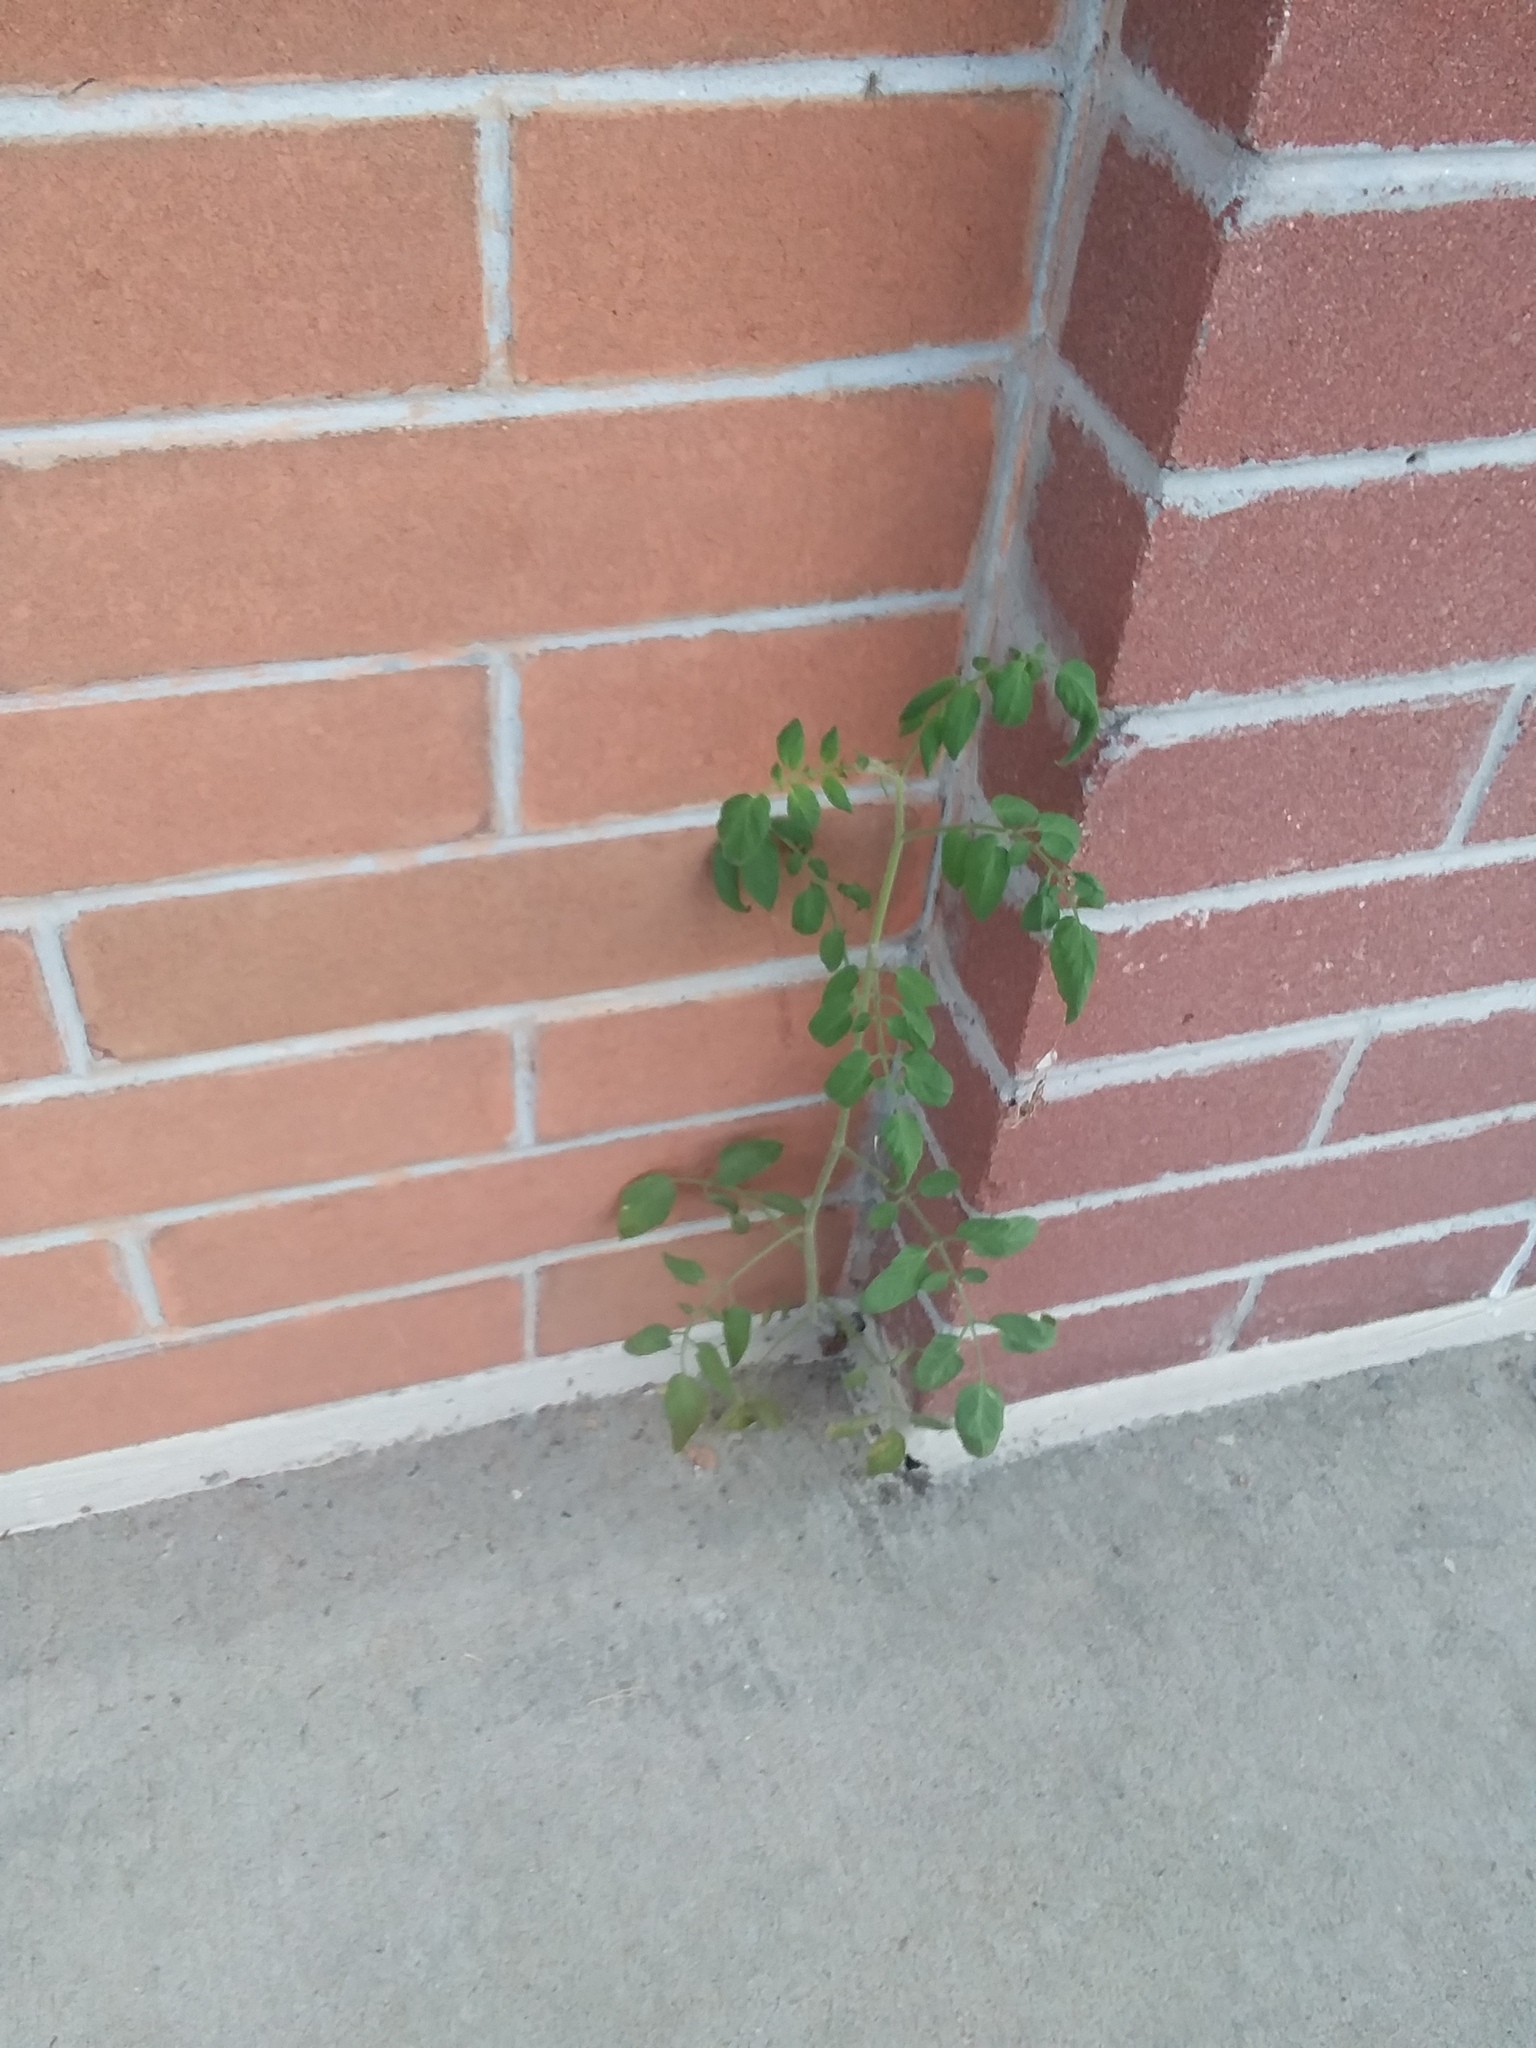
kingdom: Plantae
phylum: Tracheophyta
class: Magnoliopsida
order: Solanales
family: Solanaceae
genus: Solanum
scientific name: Solanum lycopersicum
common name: Garden tomato
